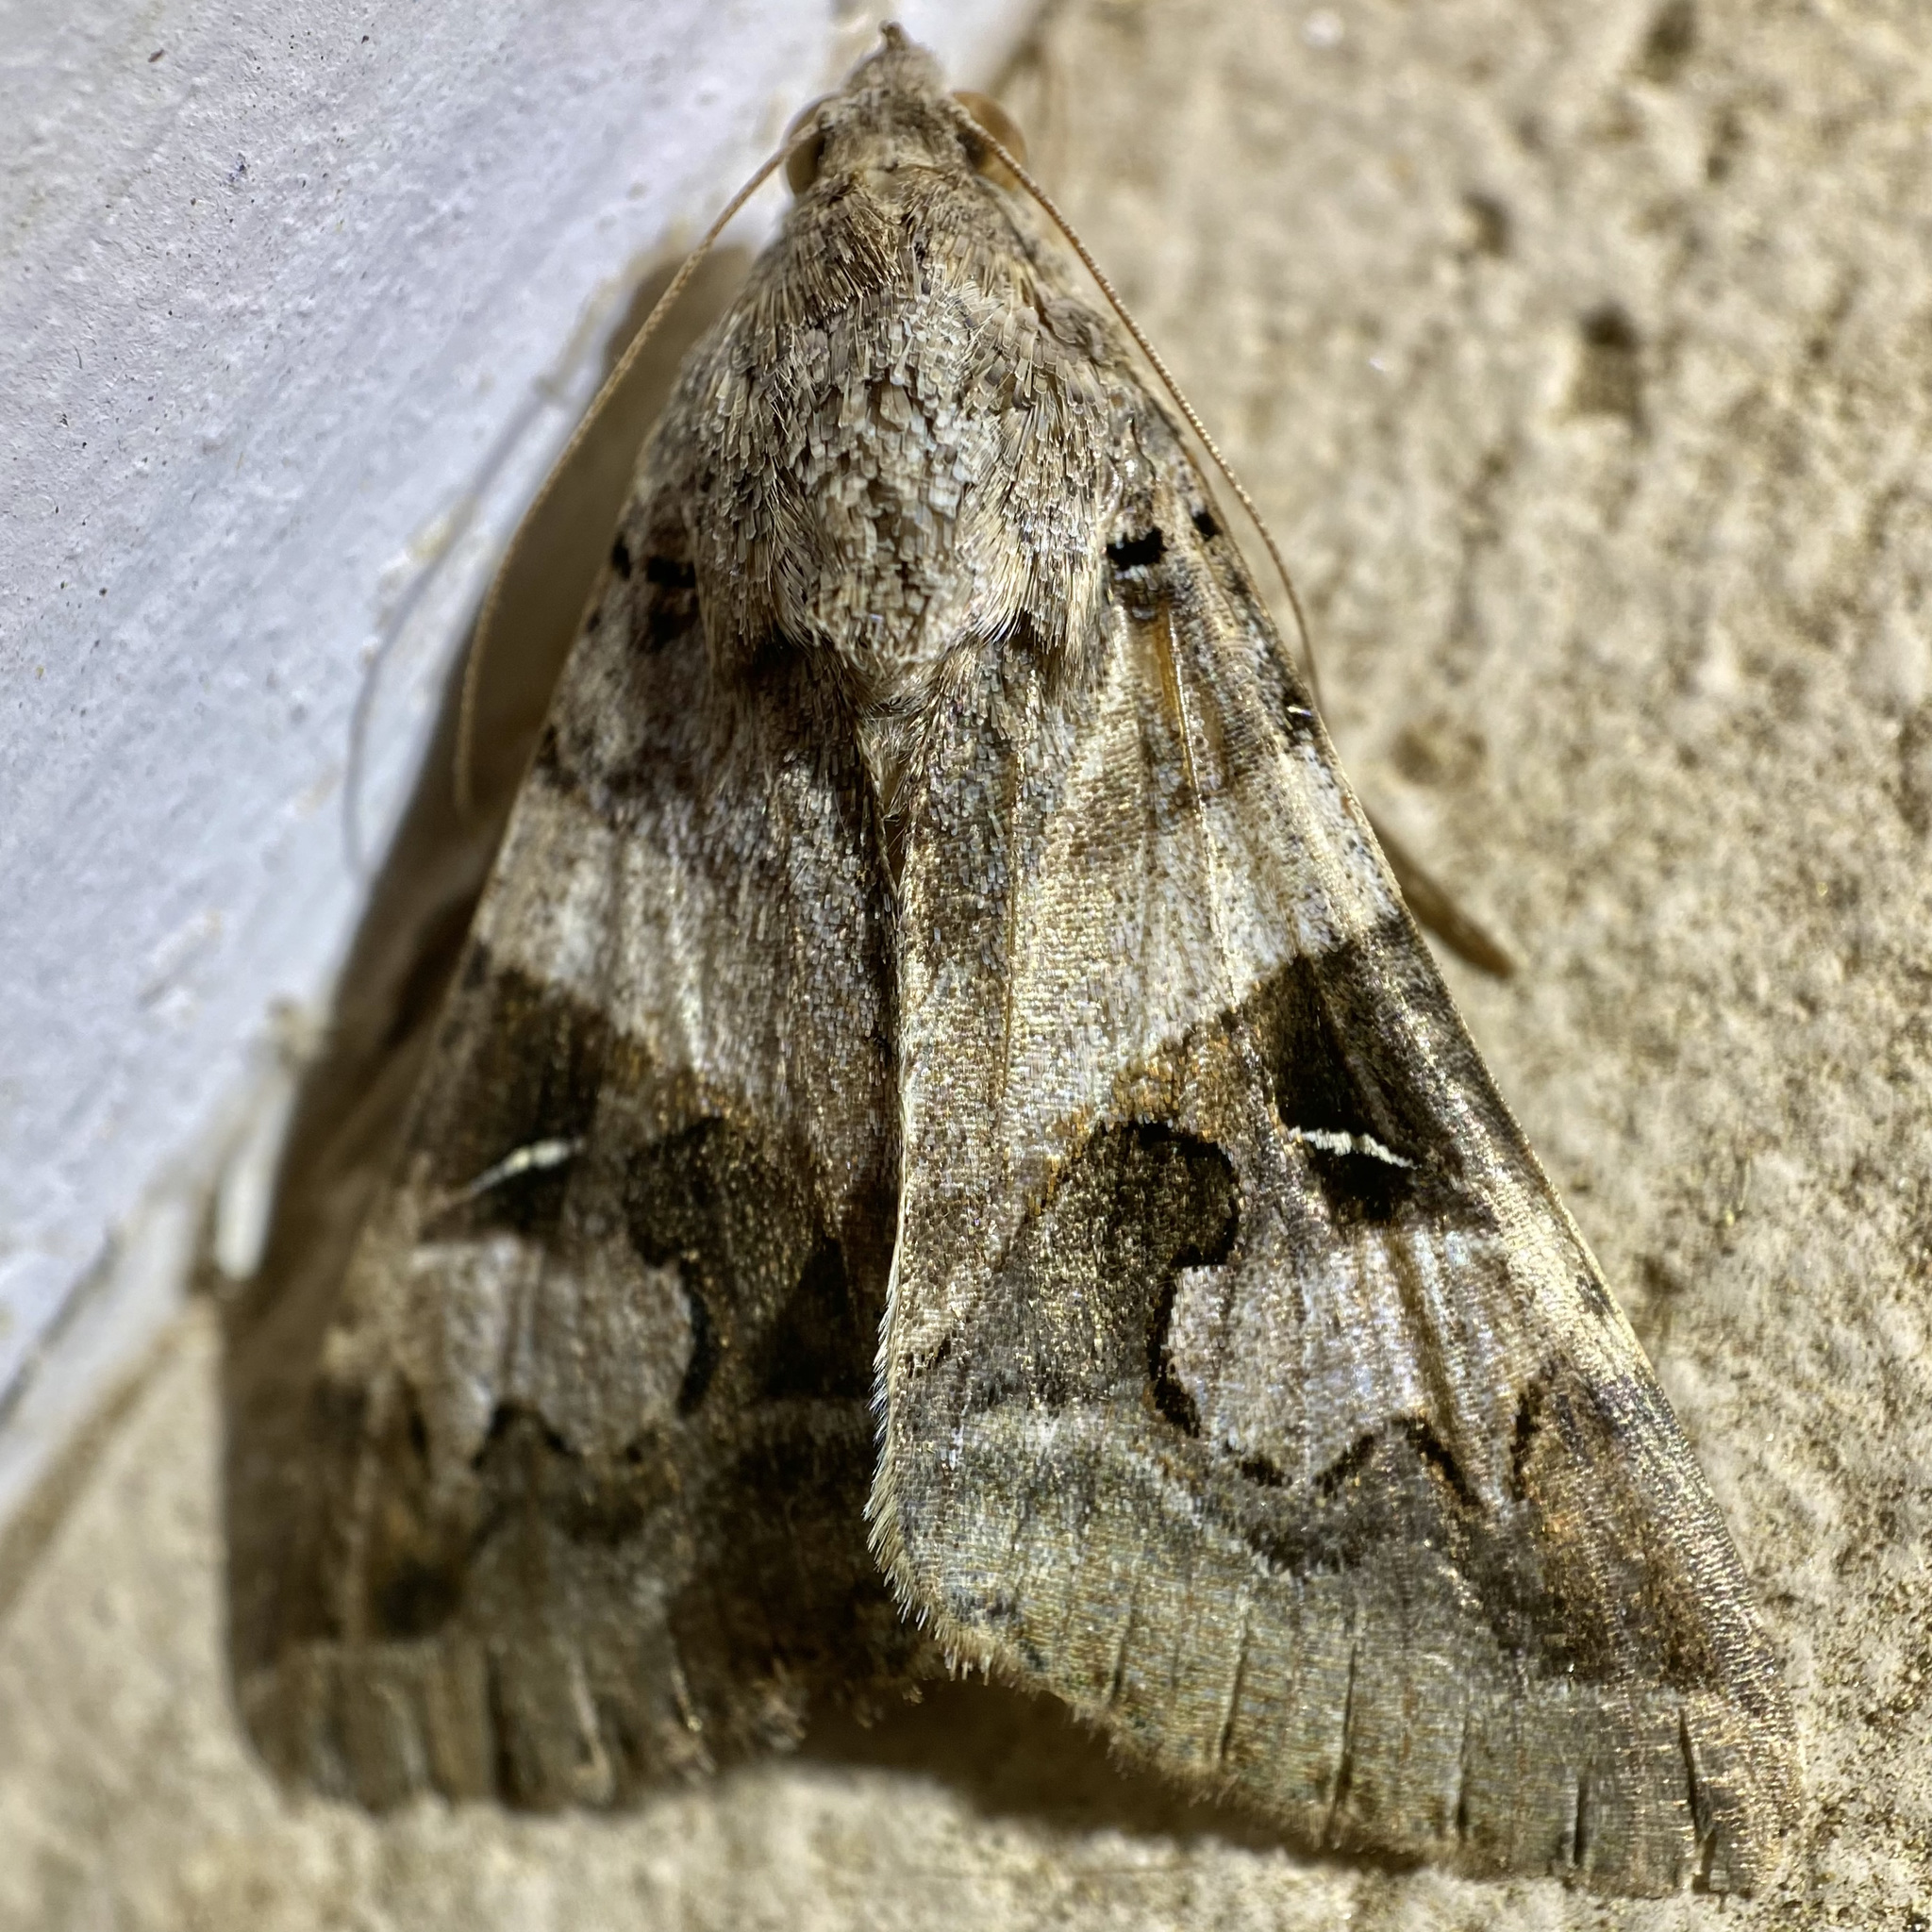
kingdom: Animalia
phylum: Arthropoda
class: Insecta
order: Lepidoptera
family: Erebidae
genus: Melipotis
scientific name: Melipotis indomita
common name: Moth
